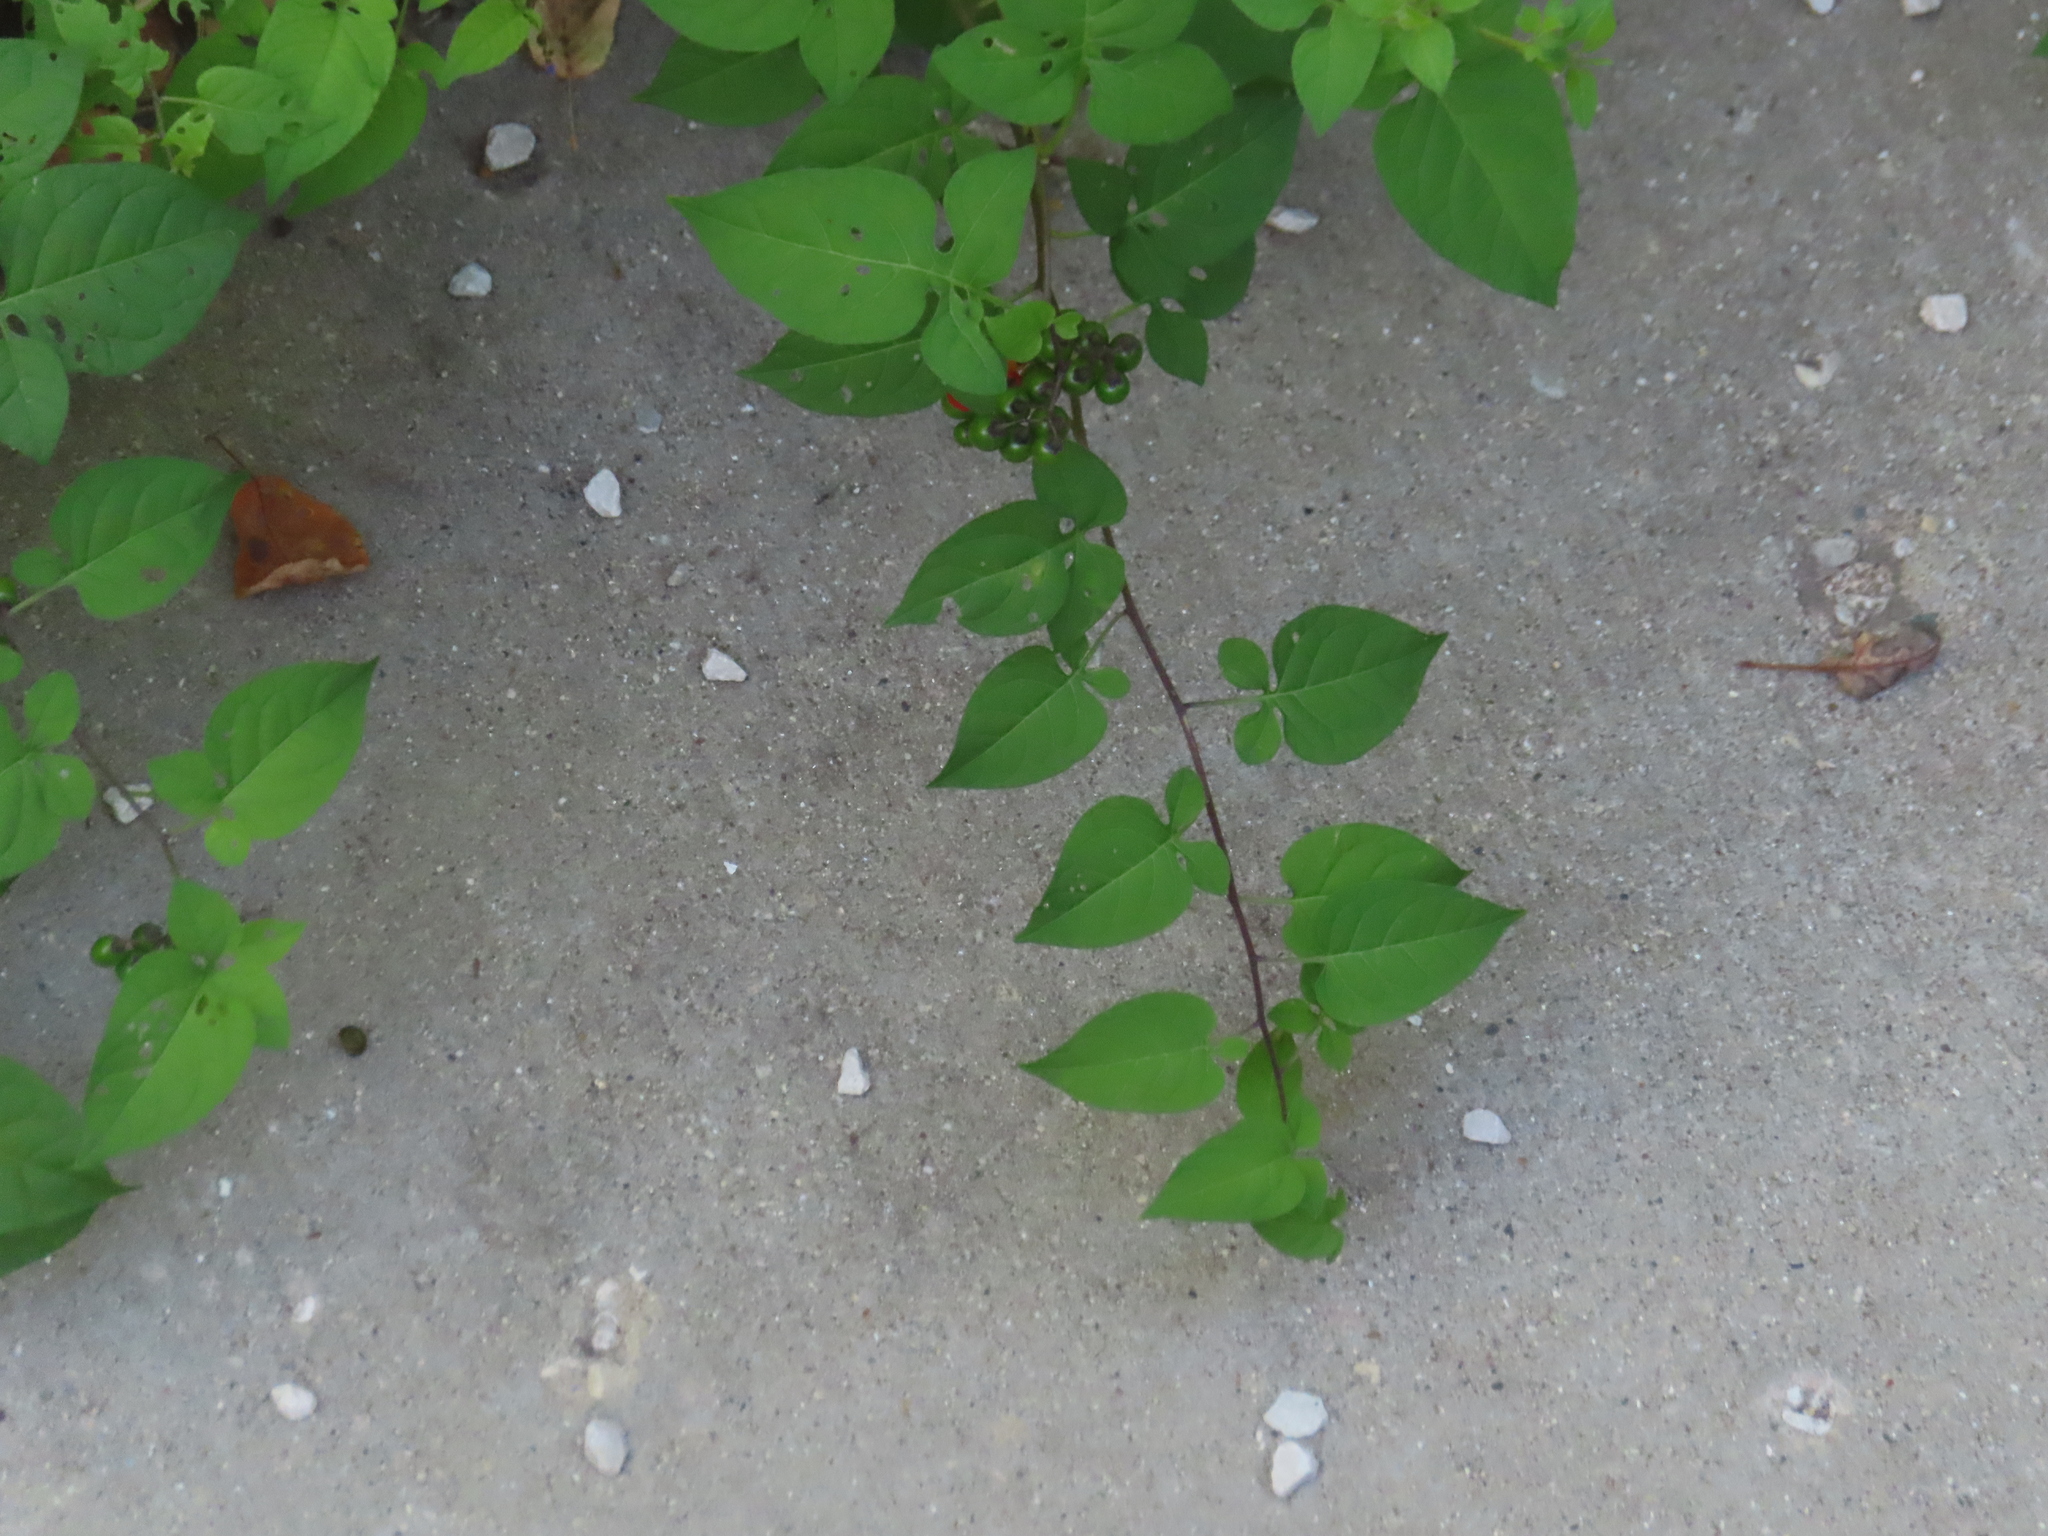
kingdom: Plantae
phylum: Tracheophyta
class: Magnoliopsida
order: Solanales
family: Solanaceae
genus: Solanum
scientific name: Solanum dulcamara
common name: Climbing nightshade
